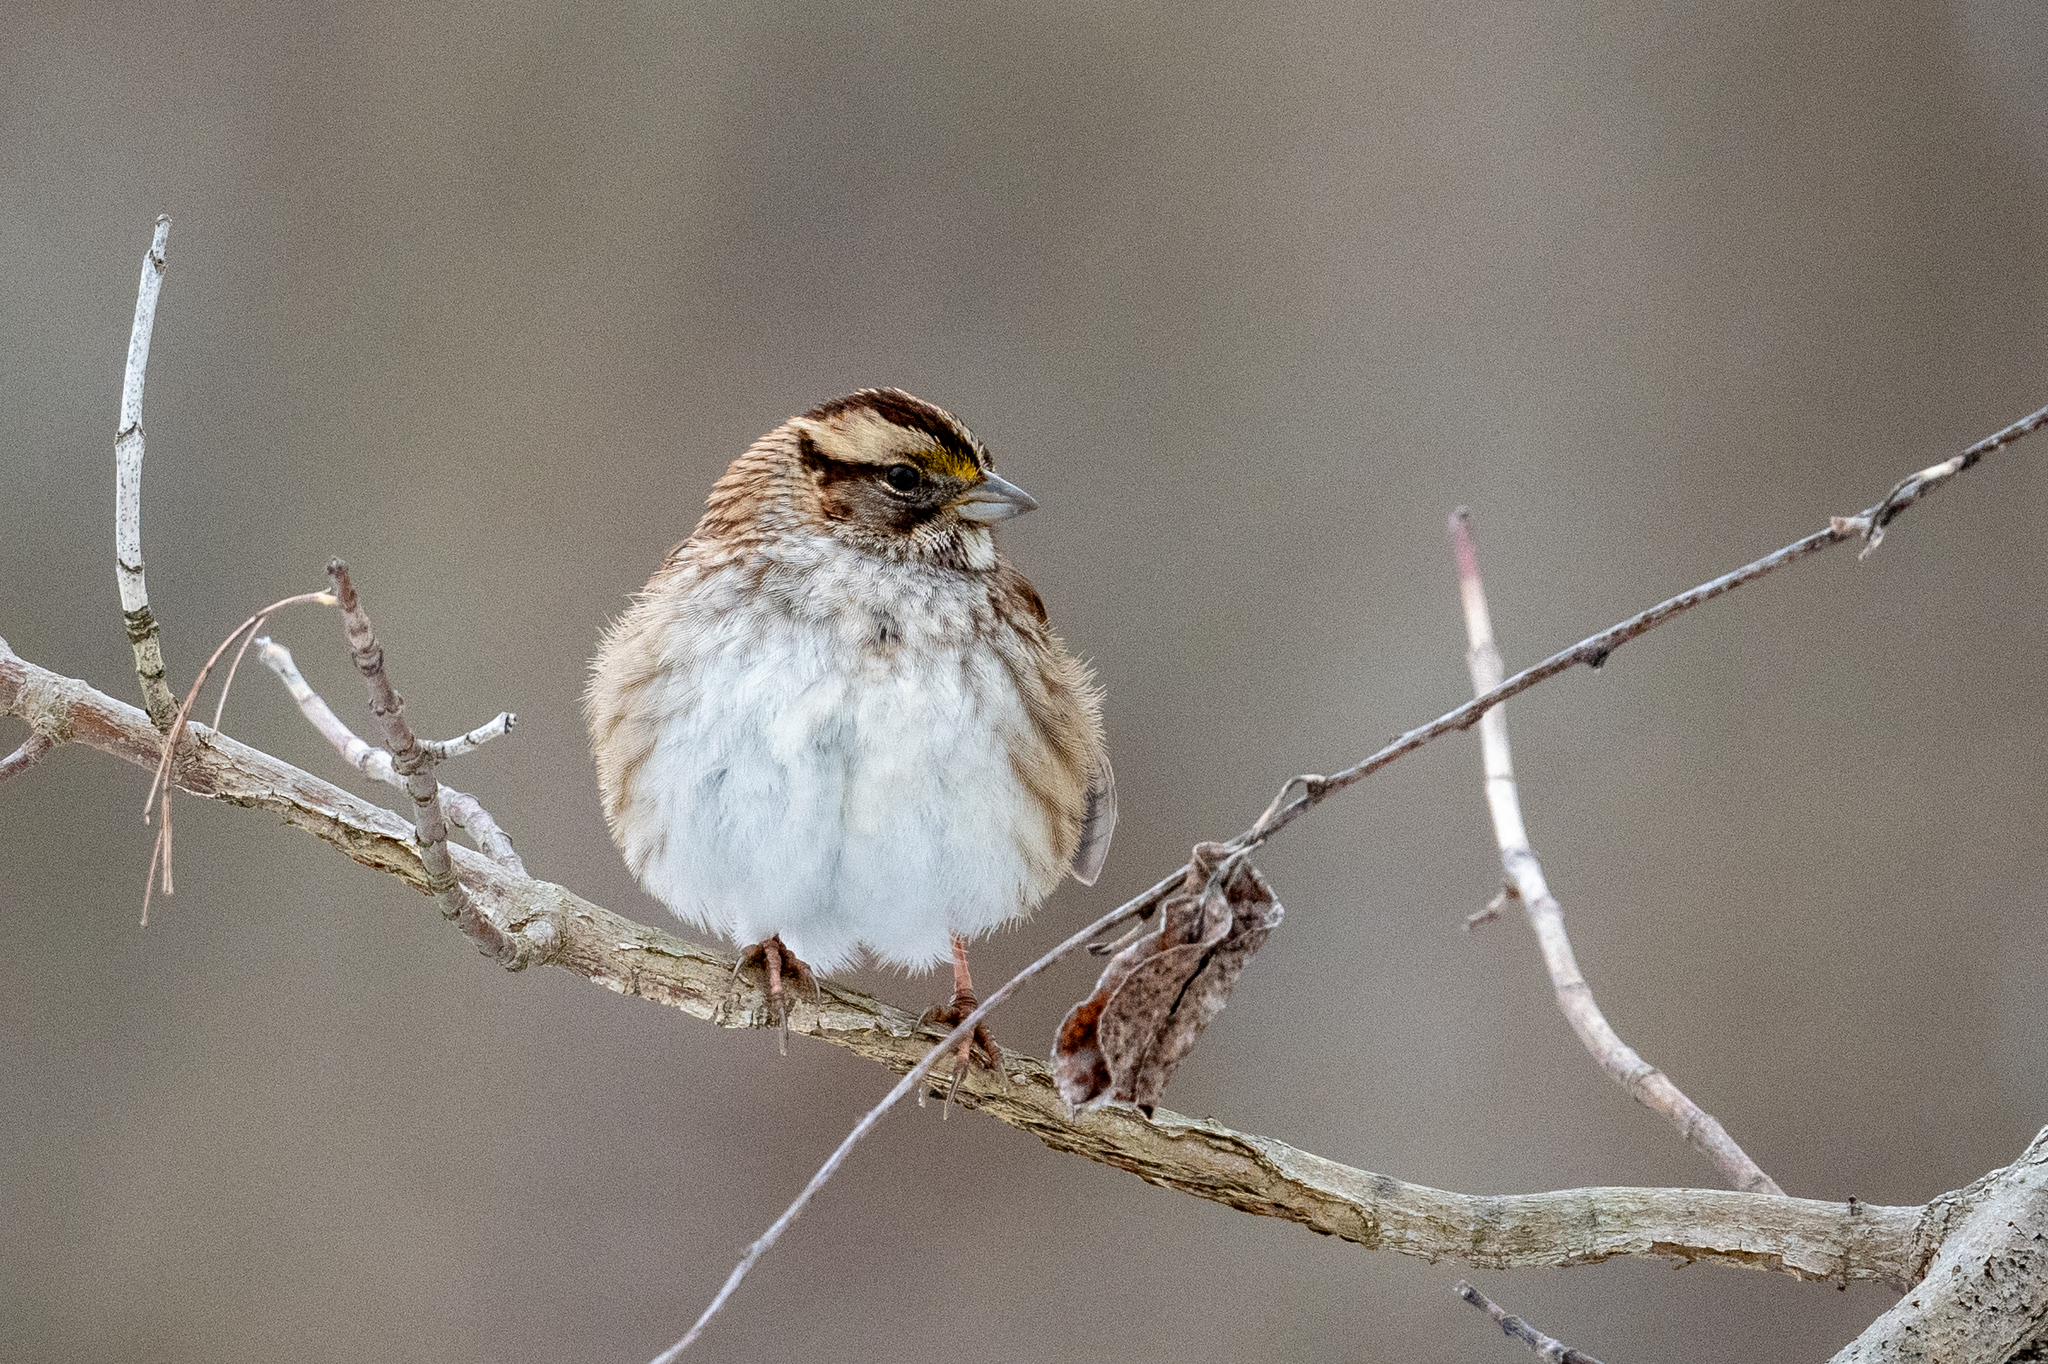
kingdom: Animalia
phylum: Chordata
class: Aves
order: Passeriformes
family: Passerellidae
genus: Zonotrichia
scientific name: Zonotrichia albicollis
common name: White-throated sparrow
